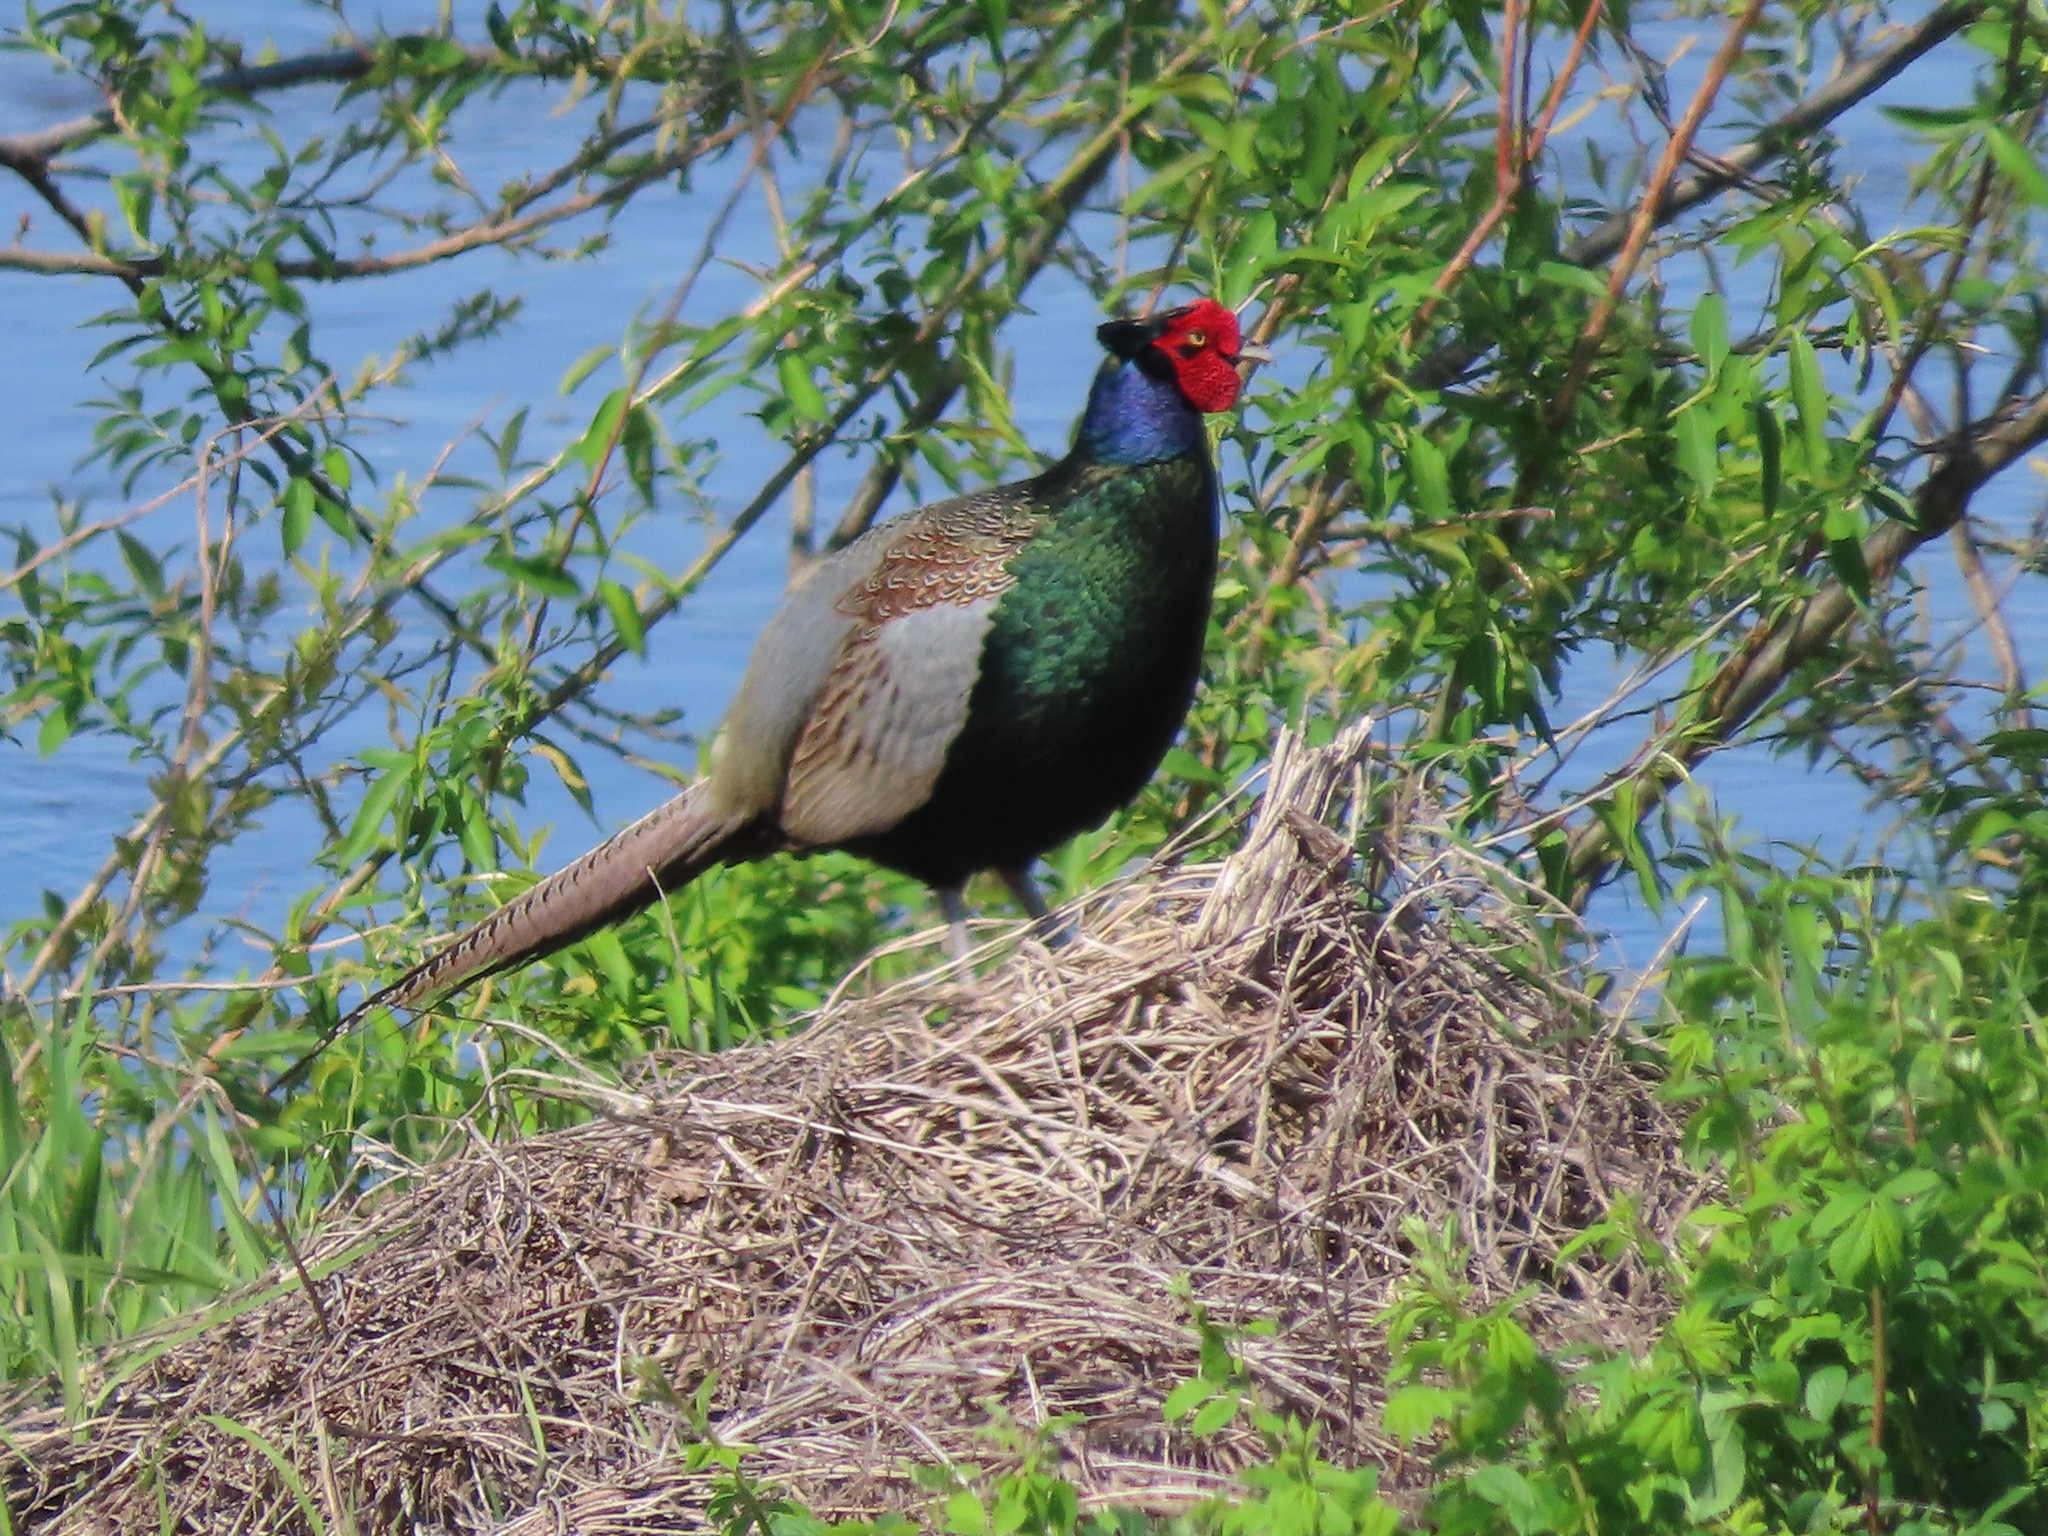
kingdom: Animalia
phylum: Chordata
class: Aves
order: Galliformes
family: Phasianidae
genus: Phasianus
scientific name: Phasianus versicolor
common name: Green pheasant
